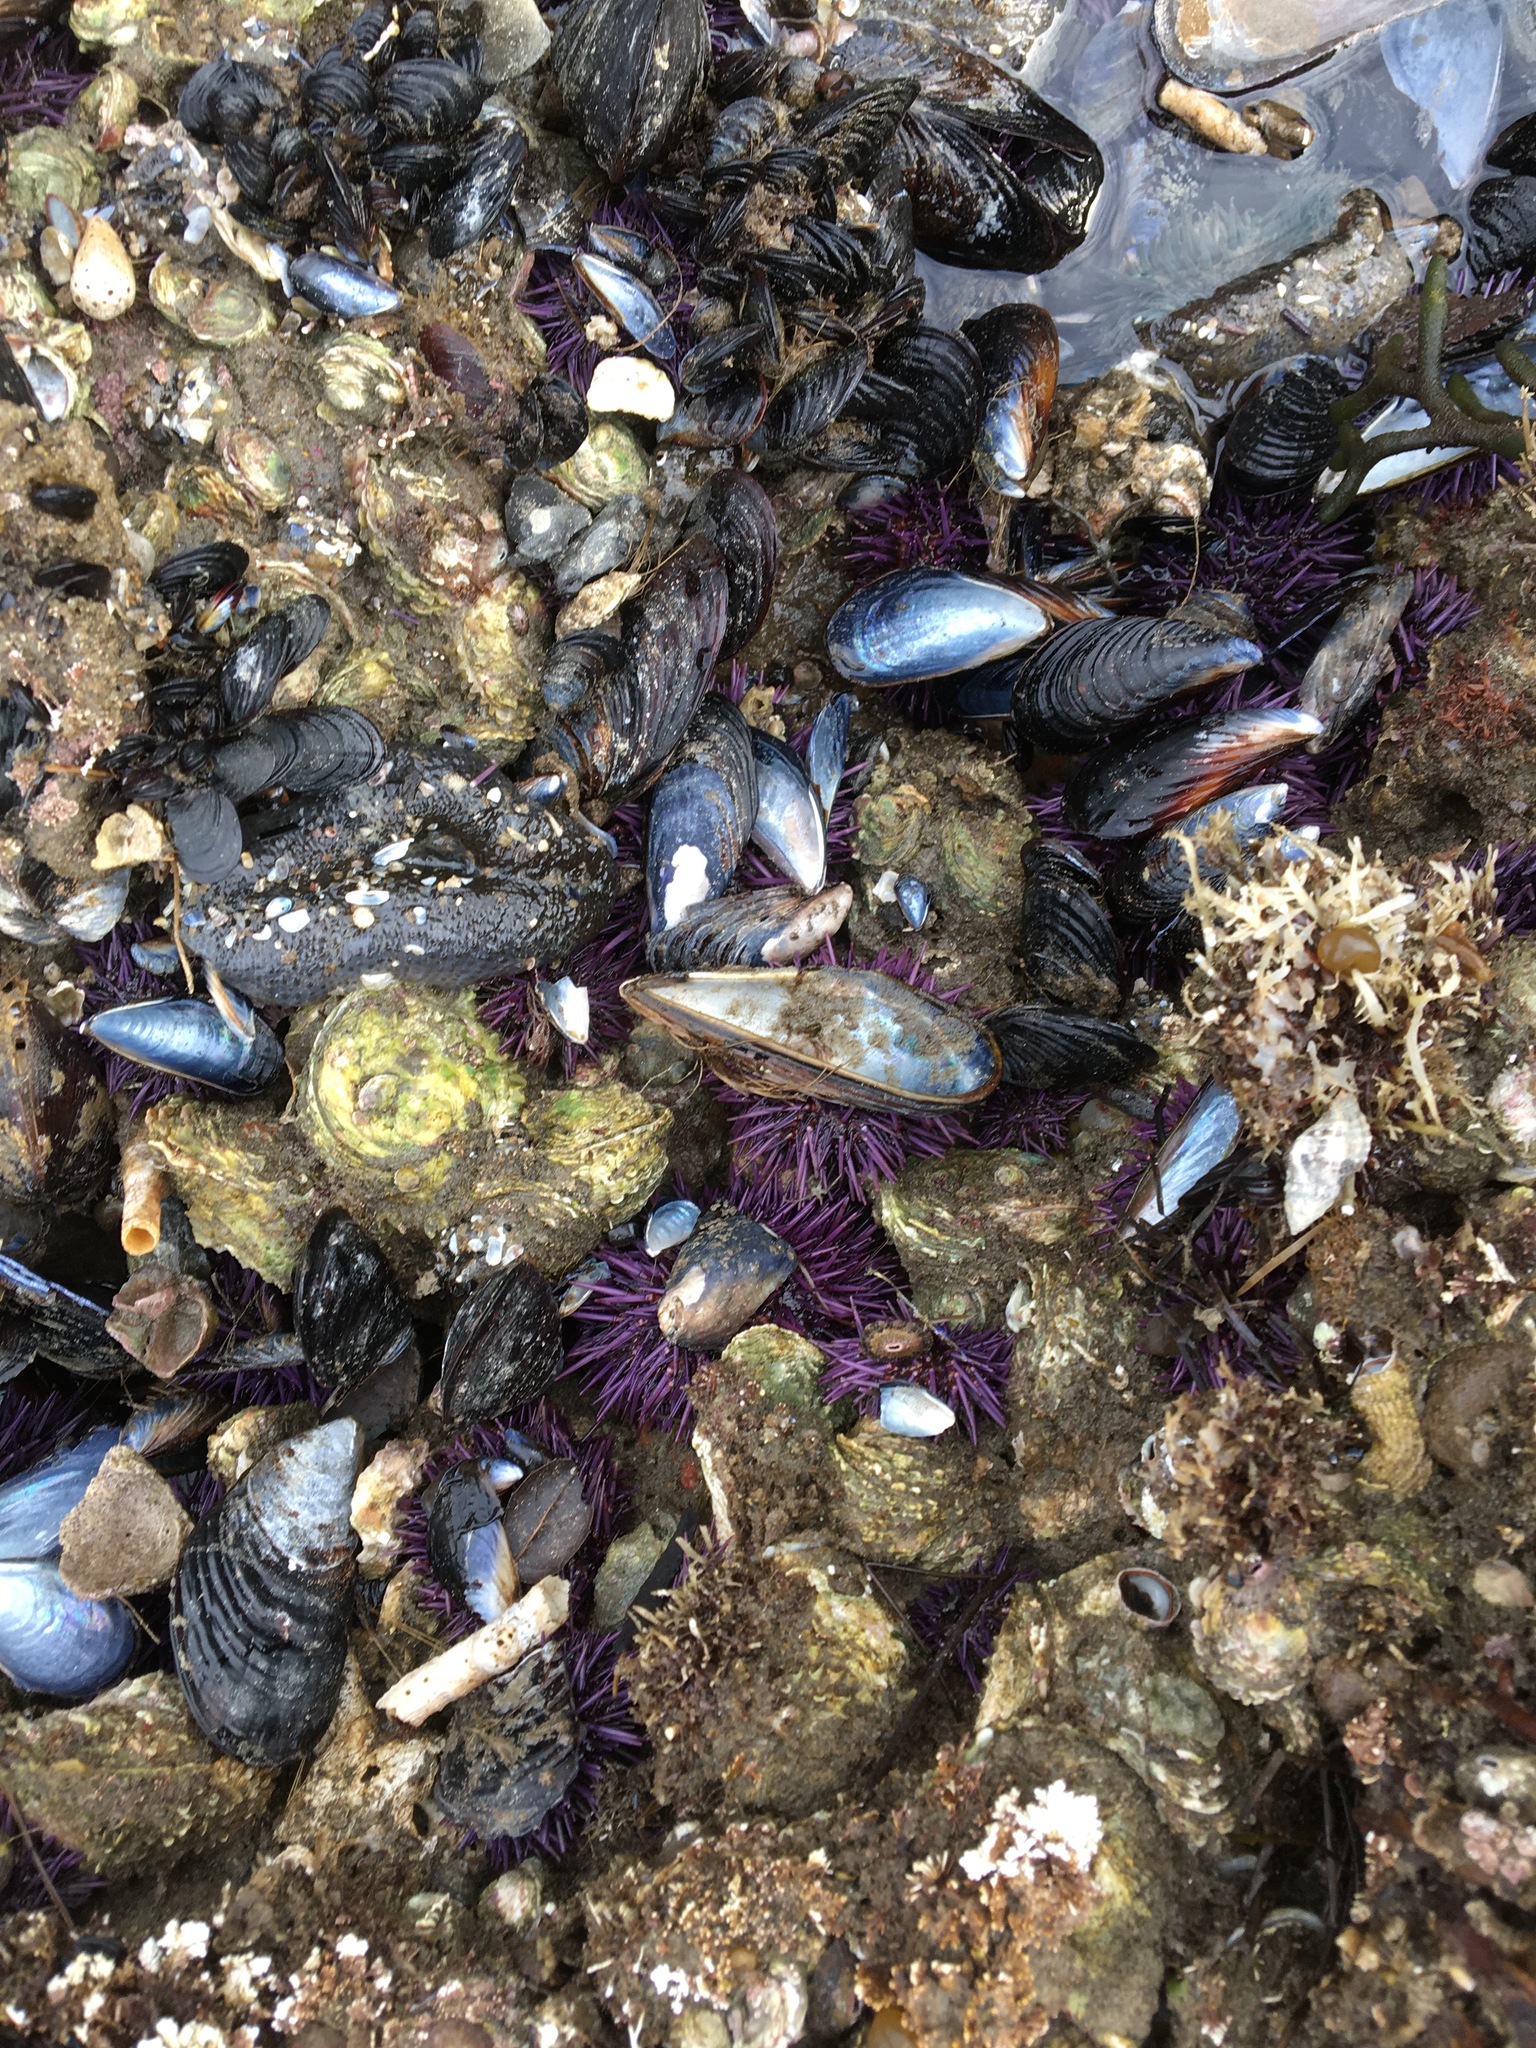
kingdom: Animalia
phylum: Echinodermata
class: Echinoidea
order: Camarodonta
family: Strongylocentrotidae
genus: Strongylocentrotus
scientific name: Strongylocentrotus purpuratus
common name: Purple sea urchin
